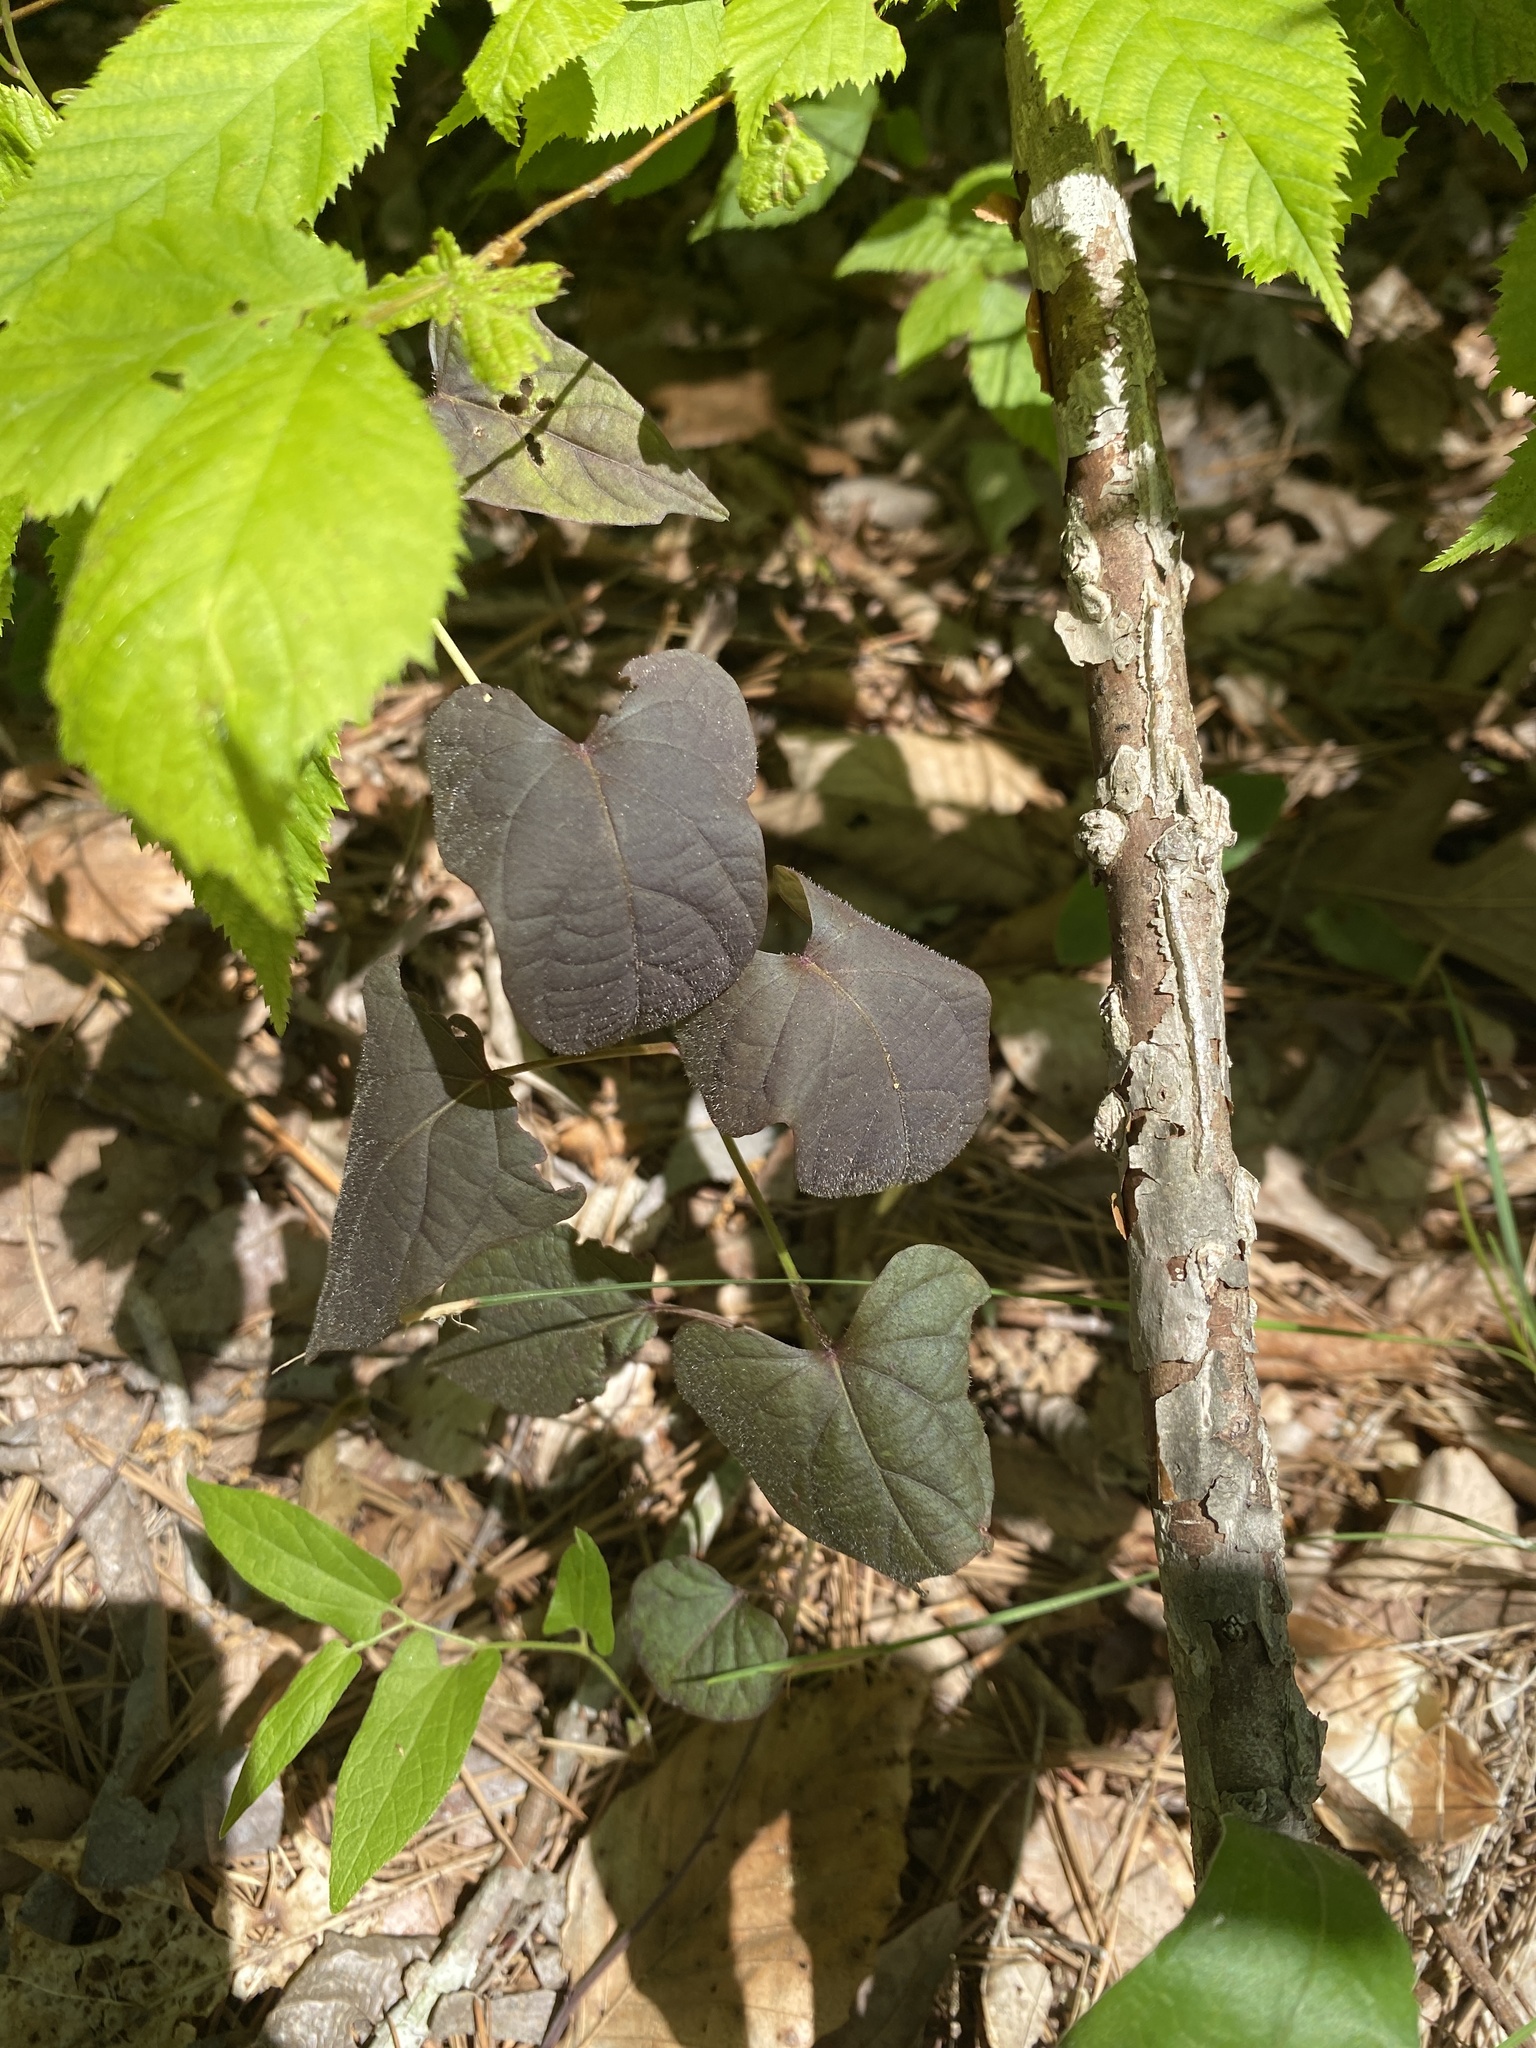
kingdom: Plantae
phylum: Tracheophyta
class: Magnoliopsida
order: Solanales
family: Convolvulaceae
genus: Ipomoea
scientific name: Ipomoea pandurata
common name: Man-of-the-earth
